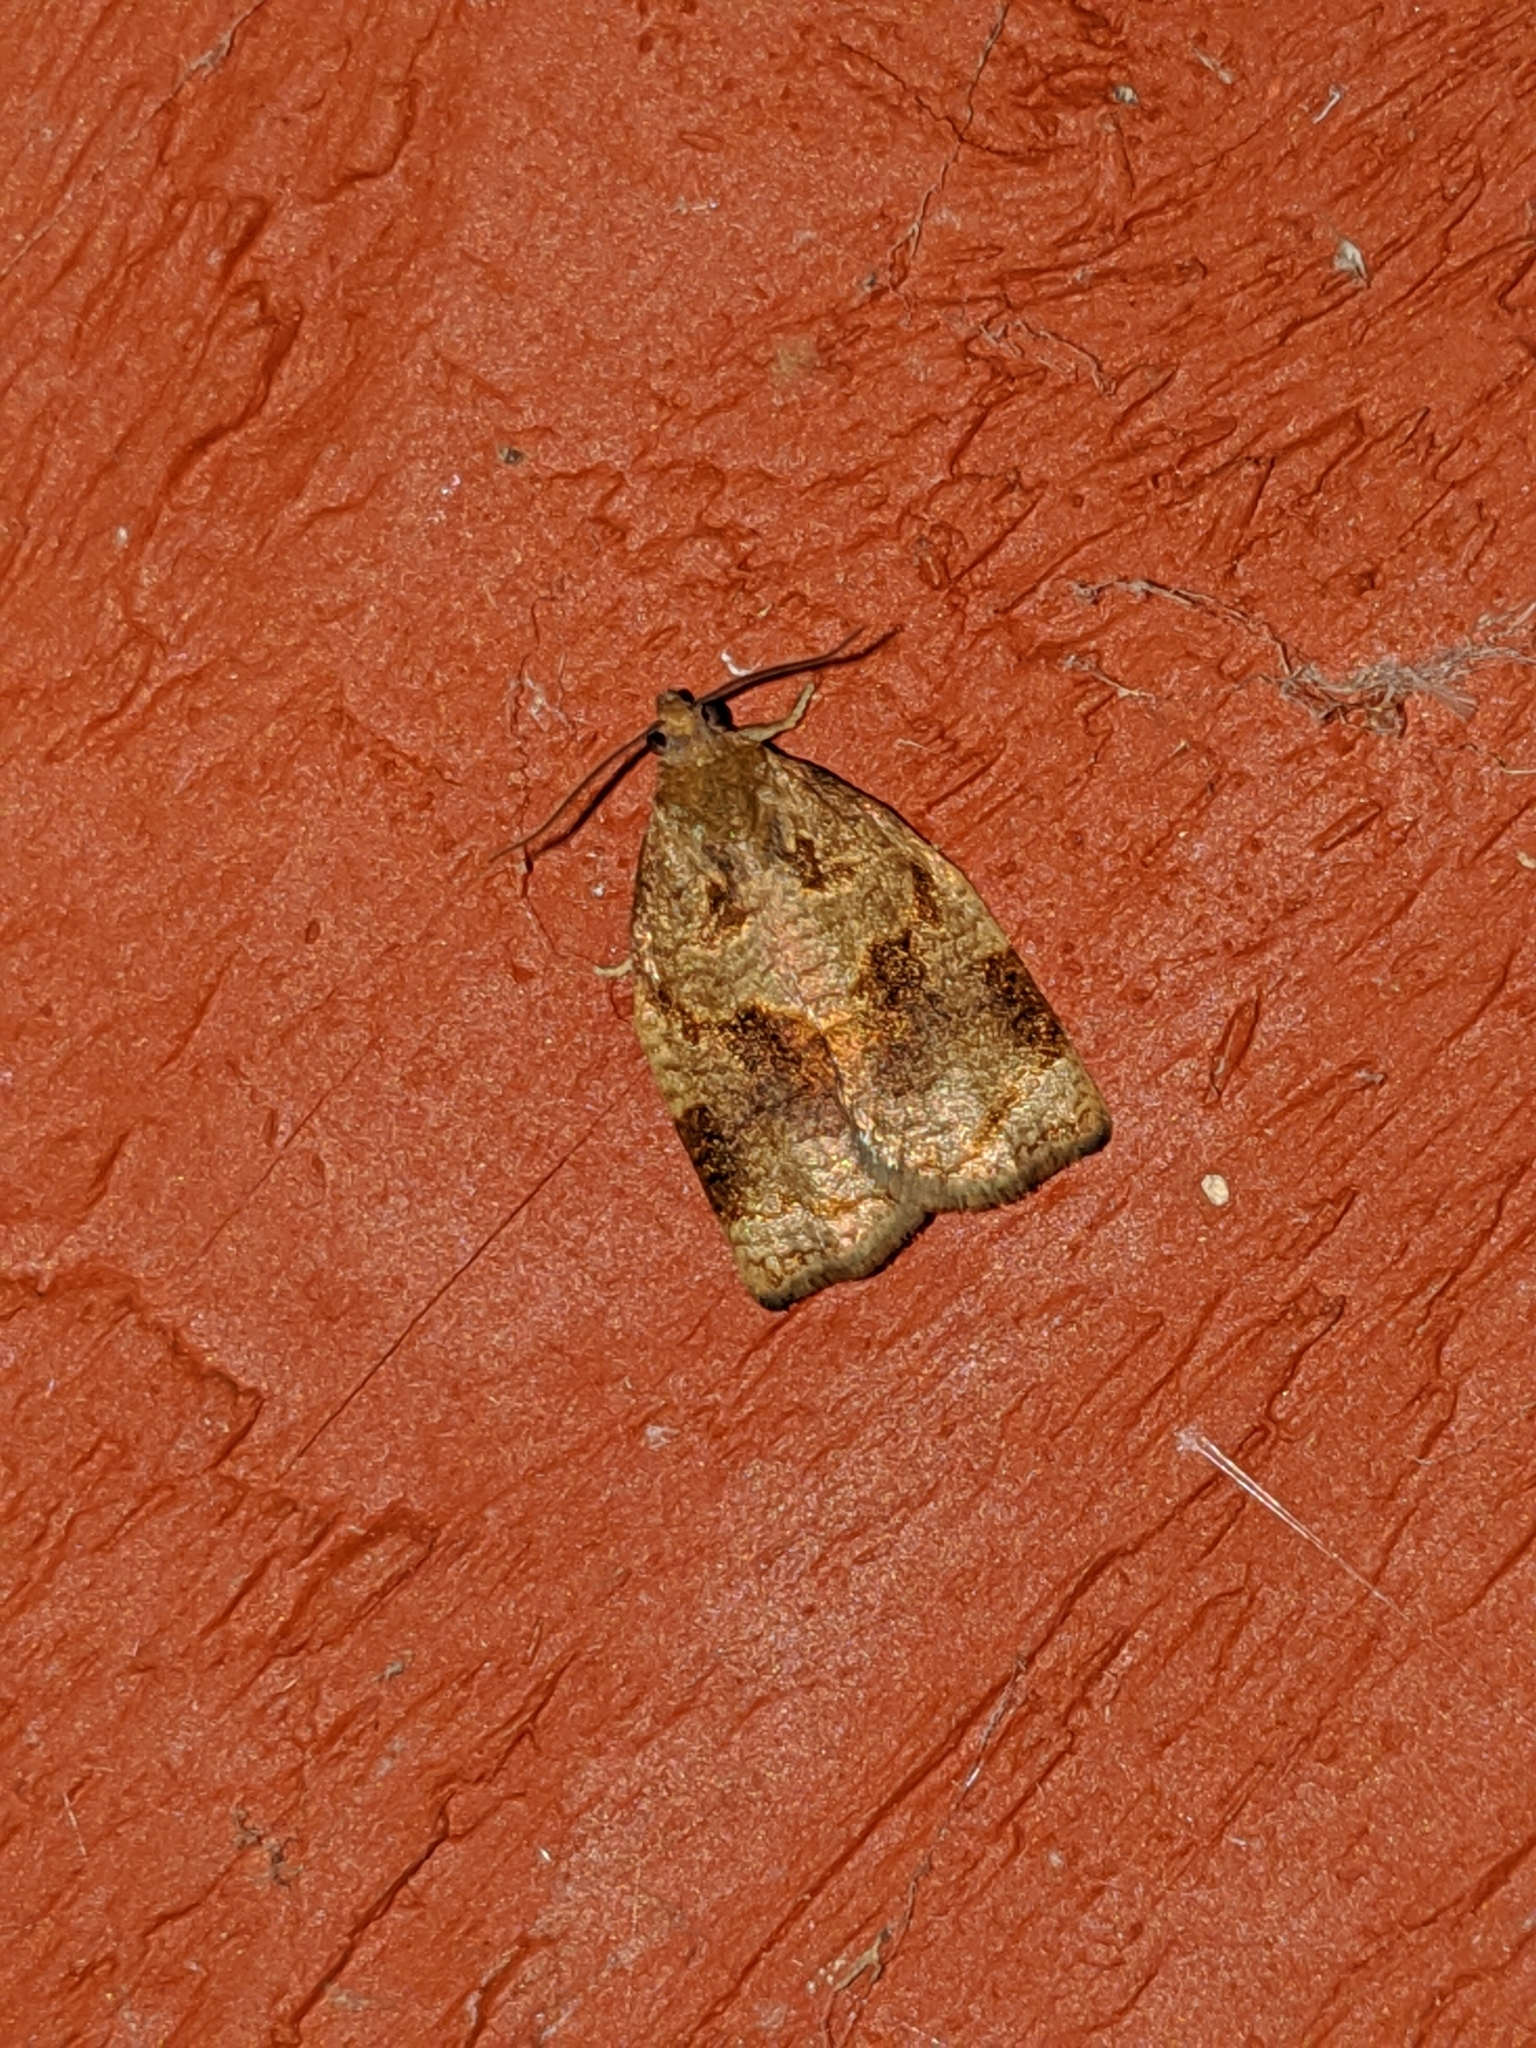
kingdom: Animalia
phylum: Arthropoda
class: Insecta
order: Lepidoptera
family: Tortricidae
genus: Archips
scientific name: Archips rosana
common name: Rose tortrix
